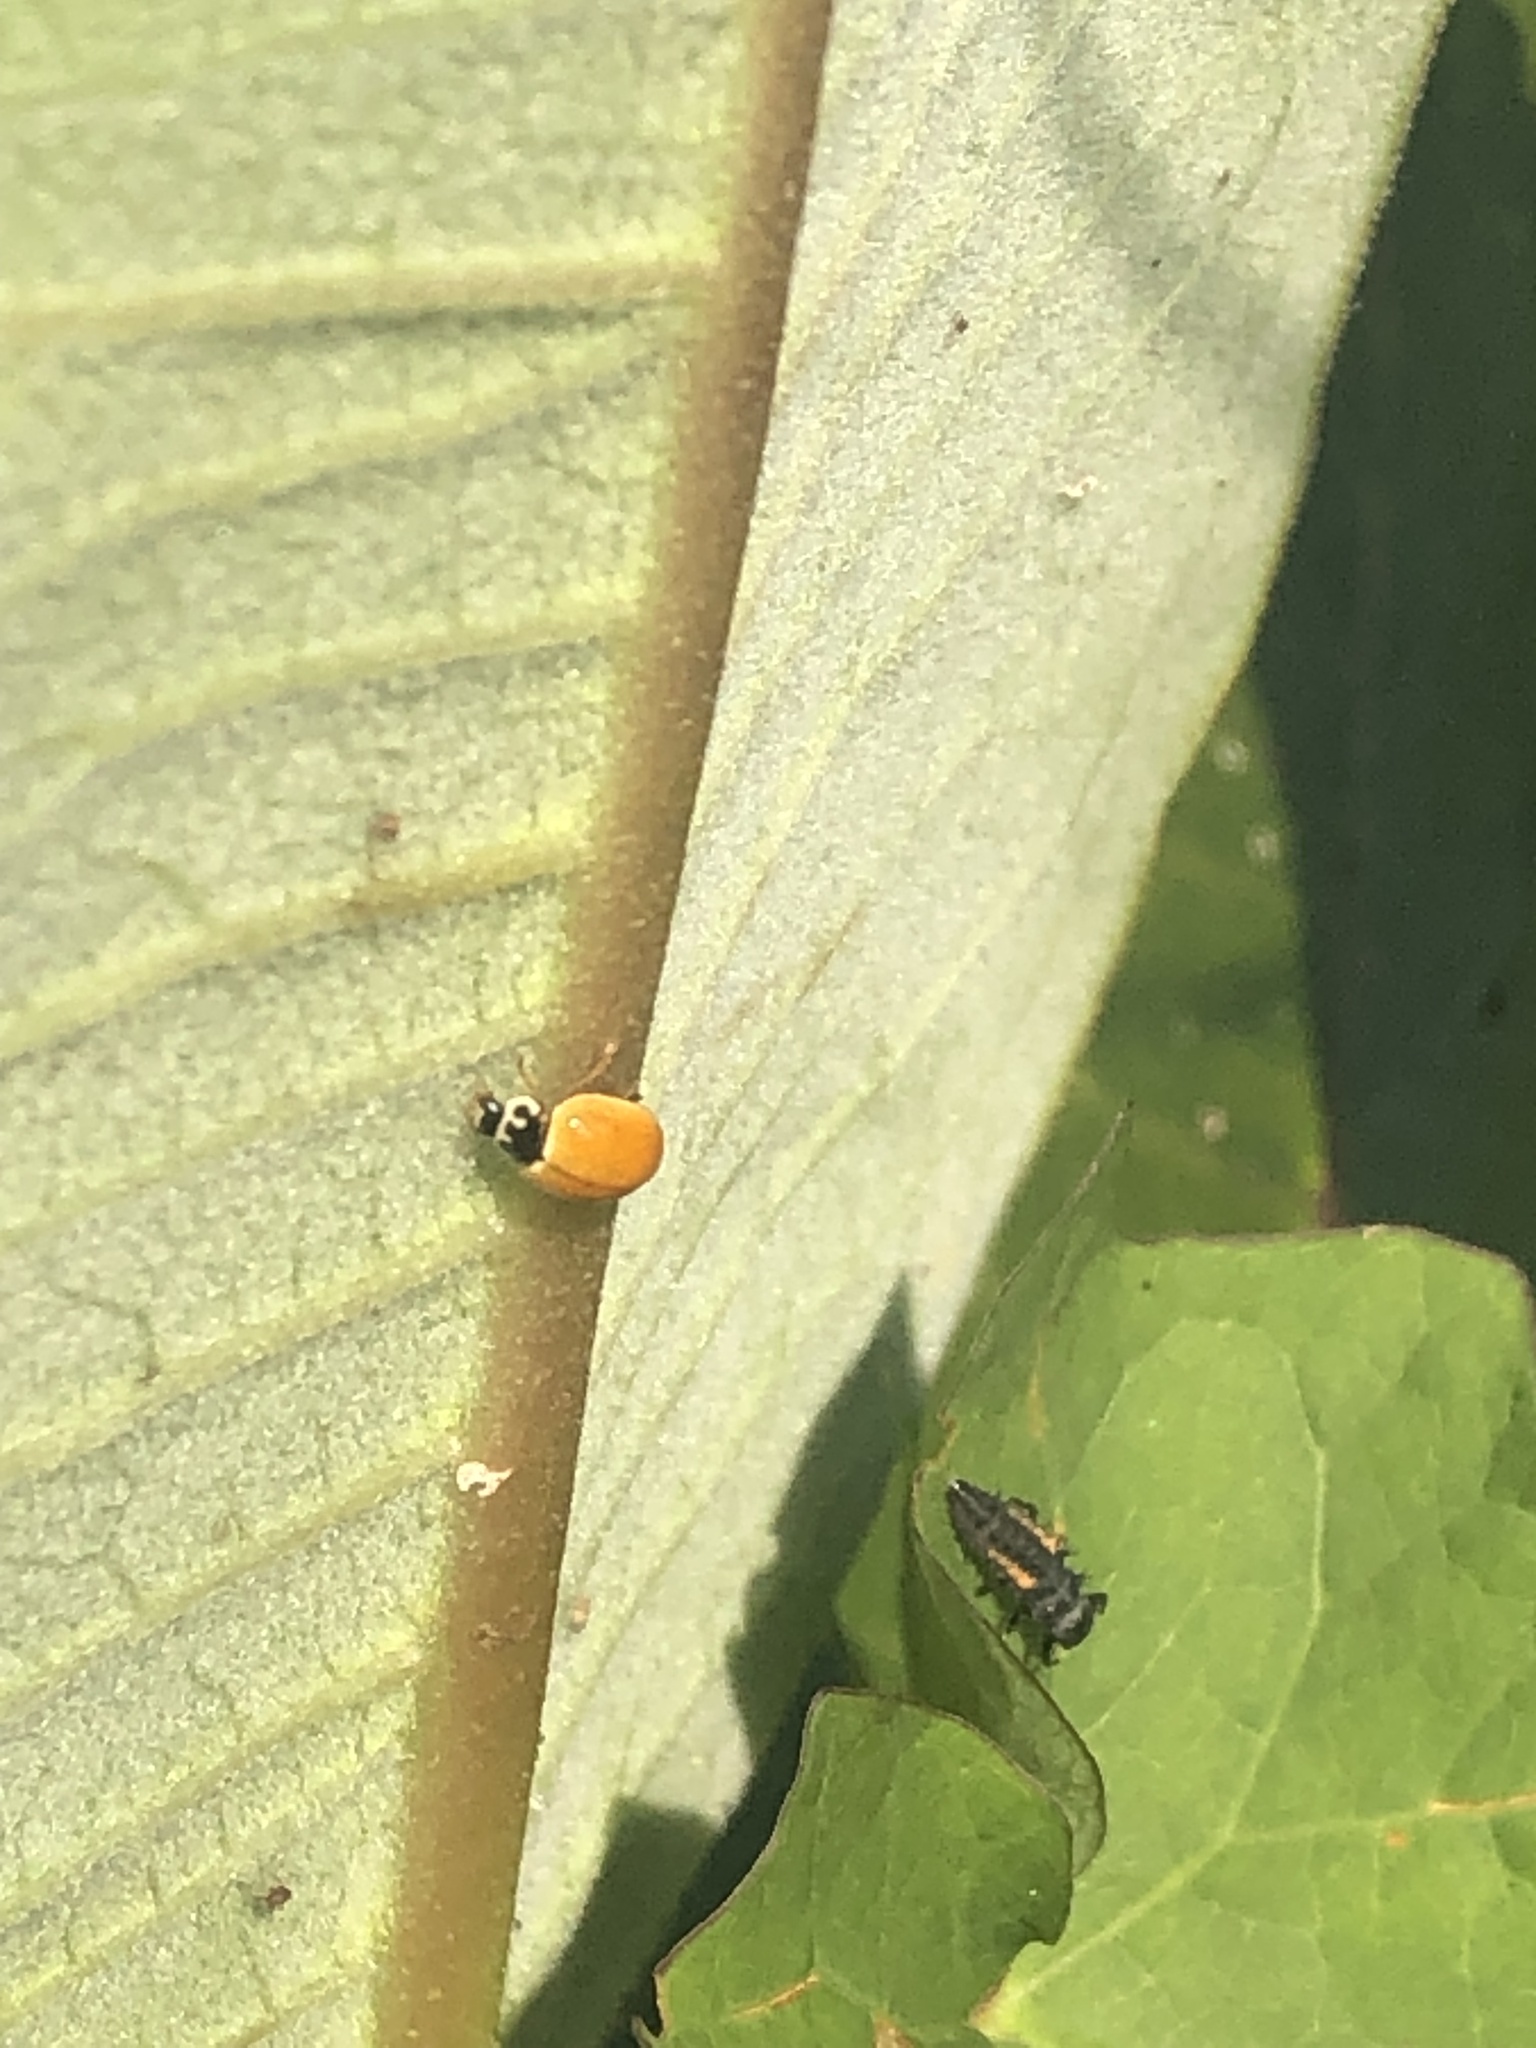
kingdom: Animalia
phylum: Arthropoda
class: Insecta
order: Coleoptera
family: Coccinellidae
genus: Cycloneda
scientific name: Cycloneda munda
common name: Polished lady beetle
